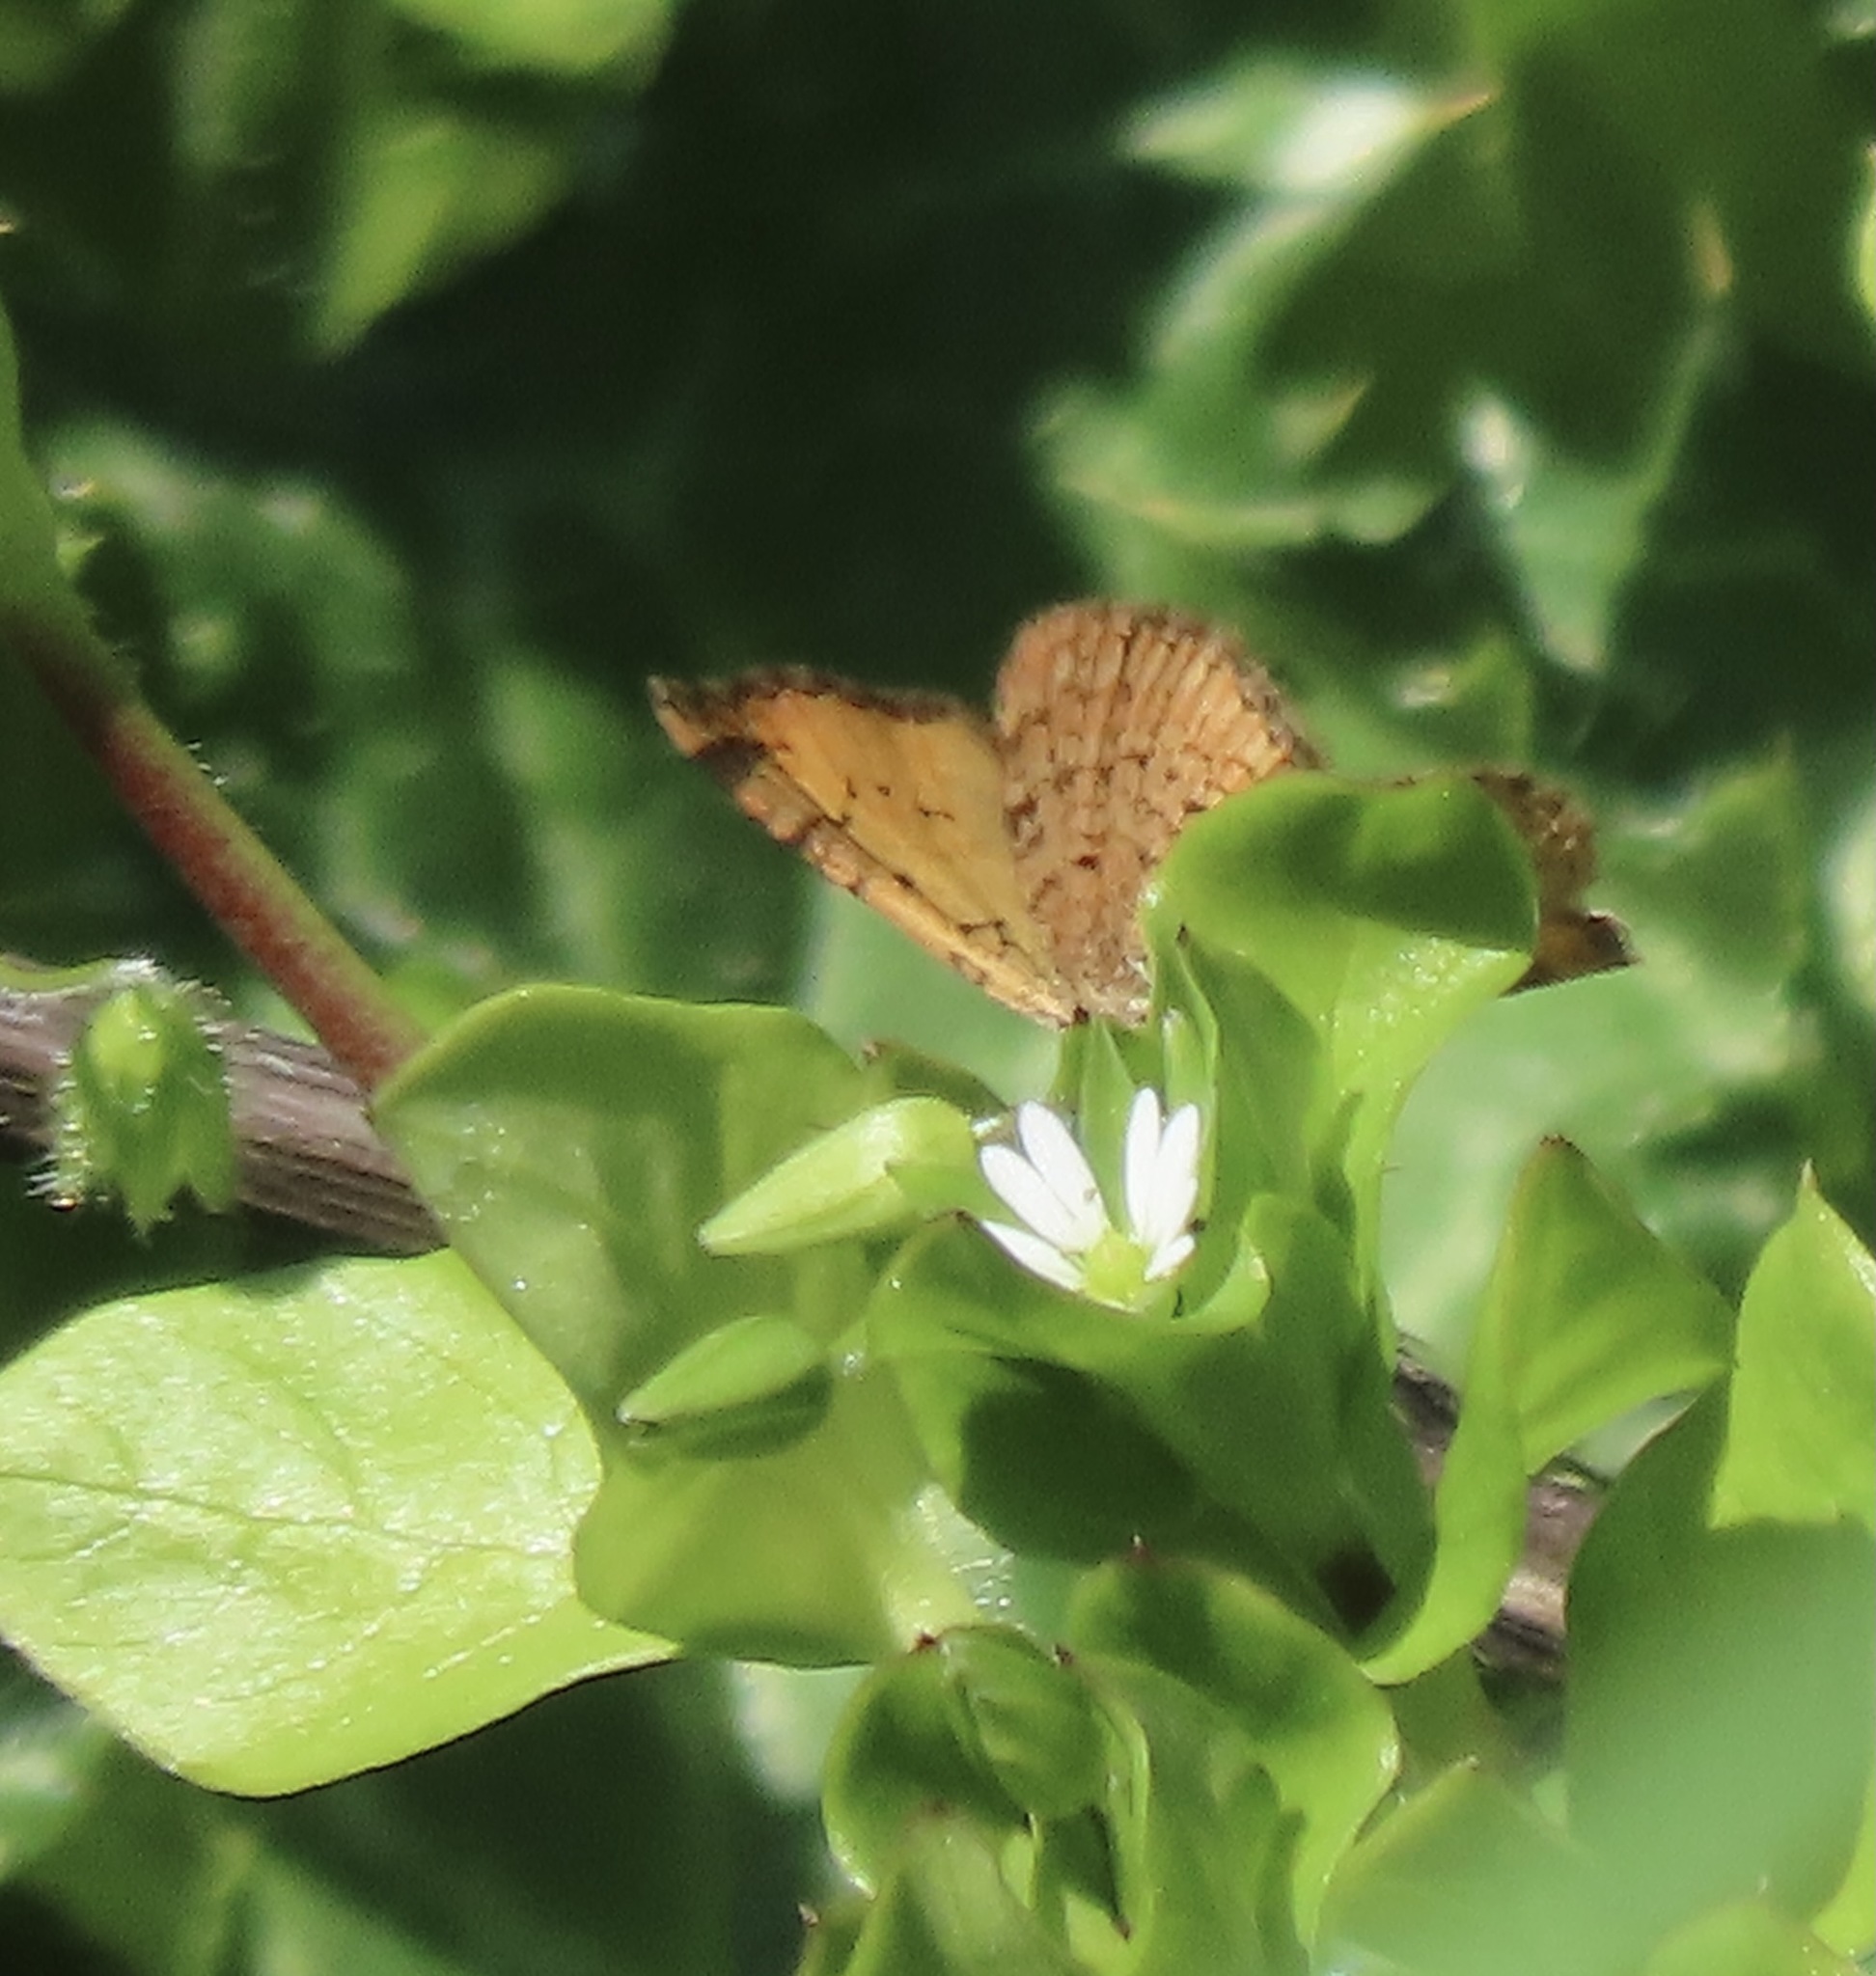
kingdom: Animalia
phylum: Arthropoda
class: Insecta
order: Lepidoptera
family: Geometridae
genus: Epirrhoe
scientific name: Epirrhoe plebeculata
